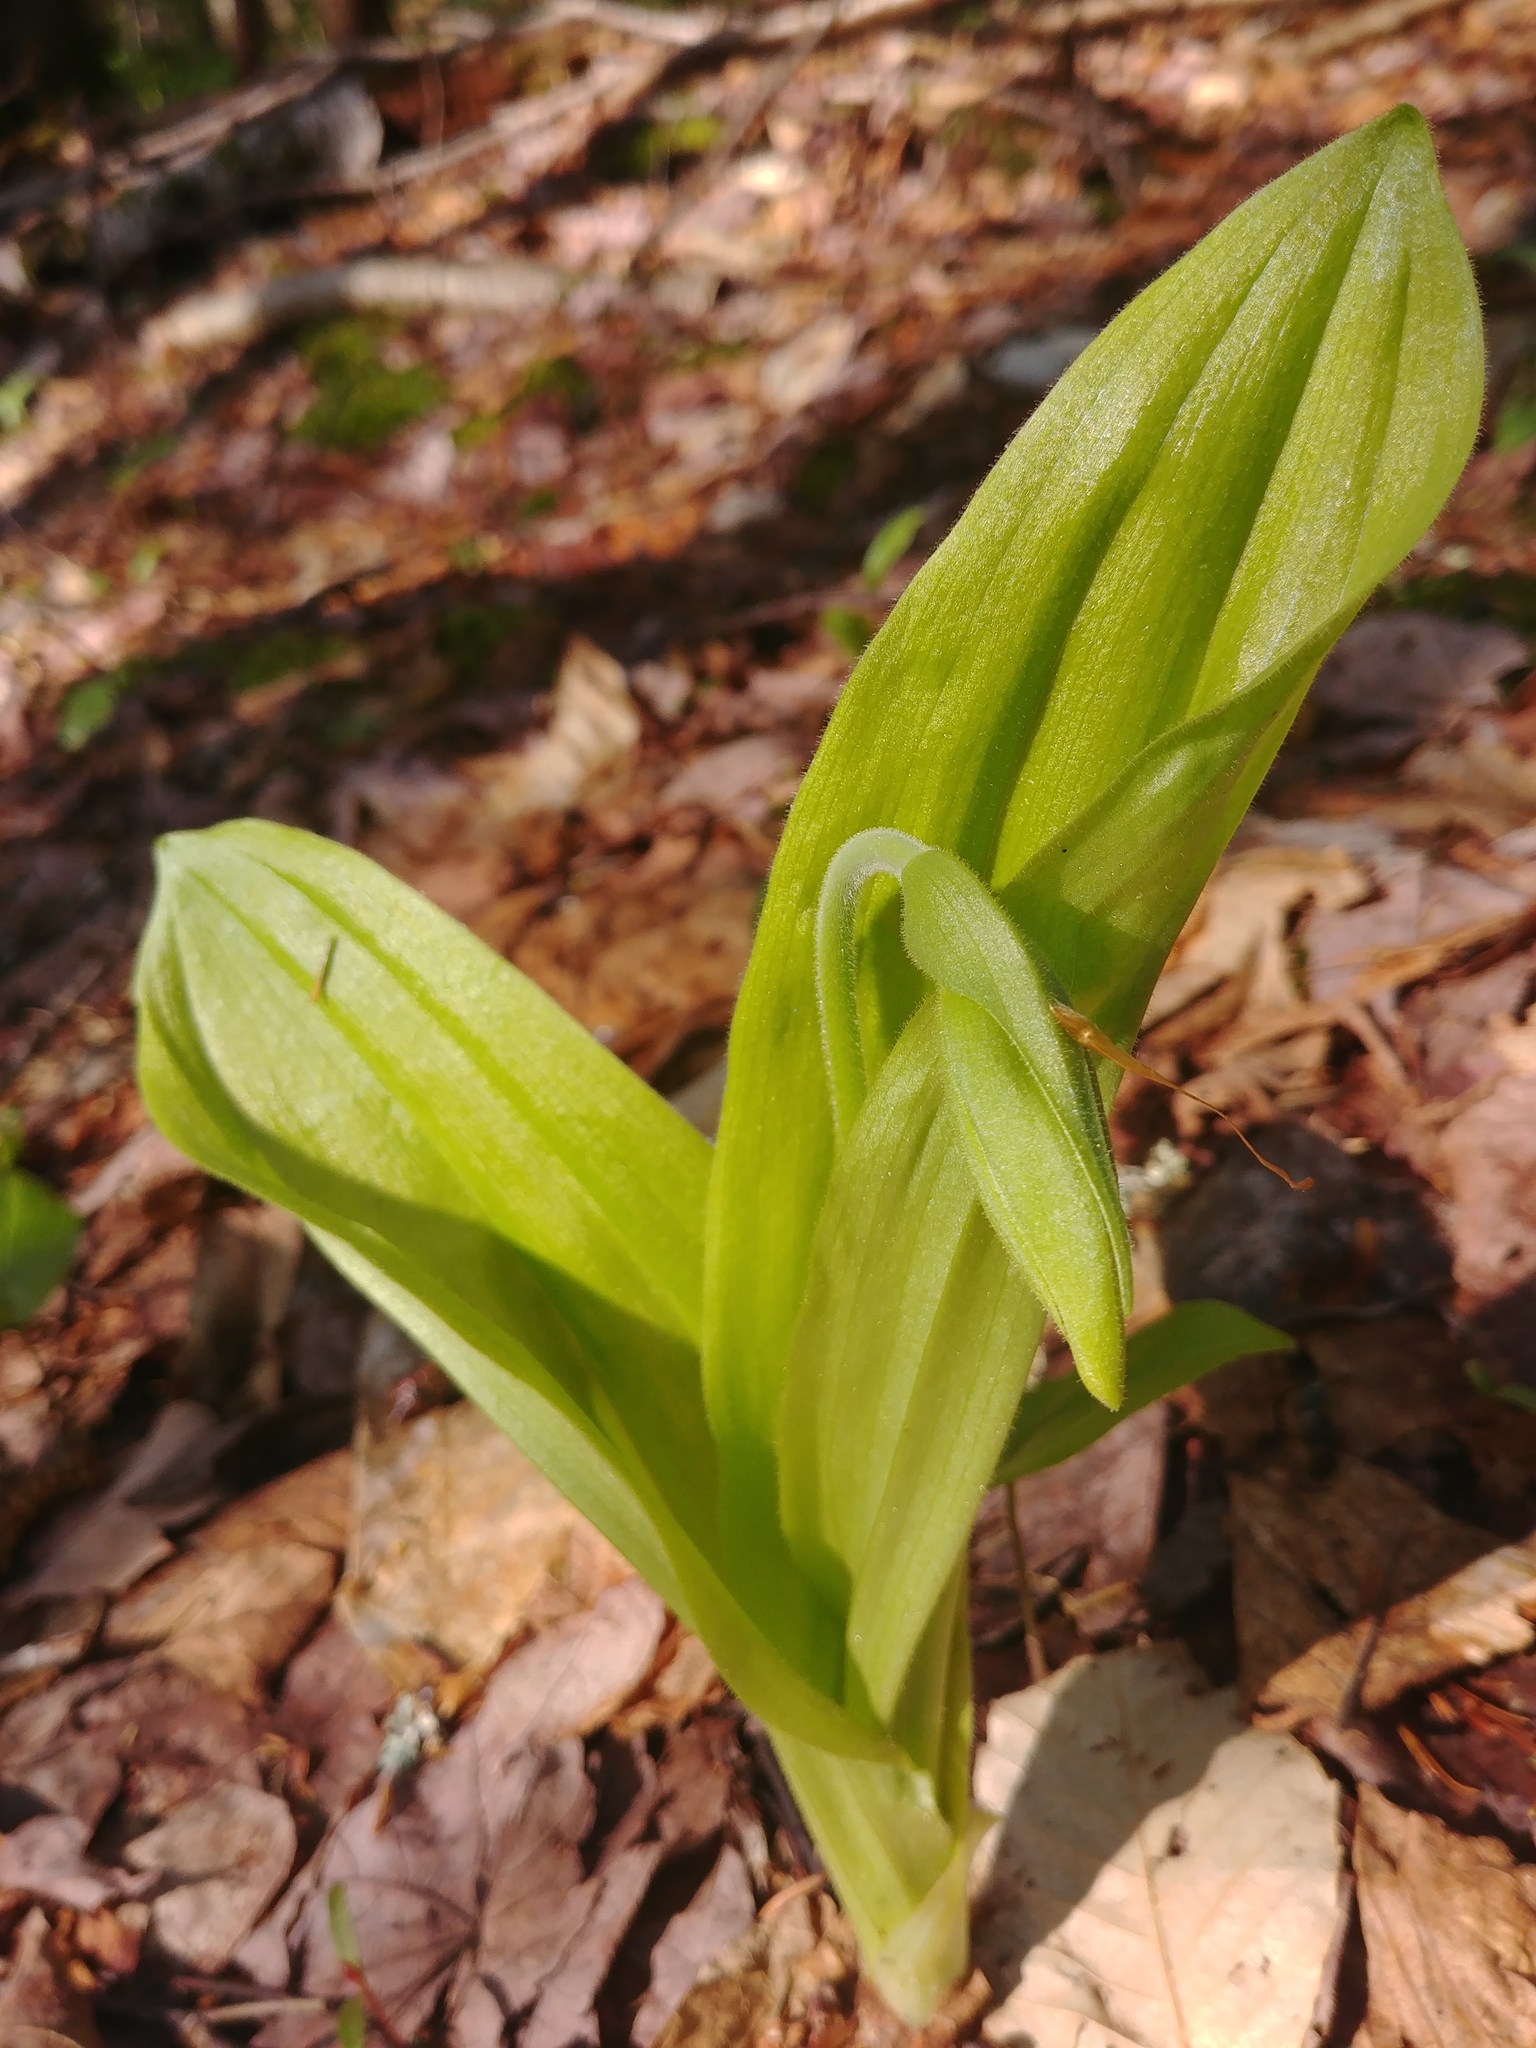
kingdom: Plantae
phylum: Tracheophyta
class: Liliopsida
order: Asparagales
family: Orchidaceae
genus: Cypripedium
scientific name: Cypripedium acaule
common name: Pink lady's-slipper
